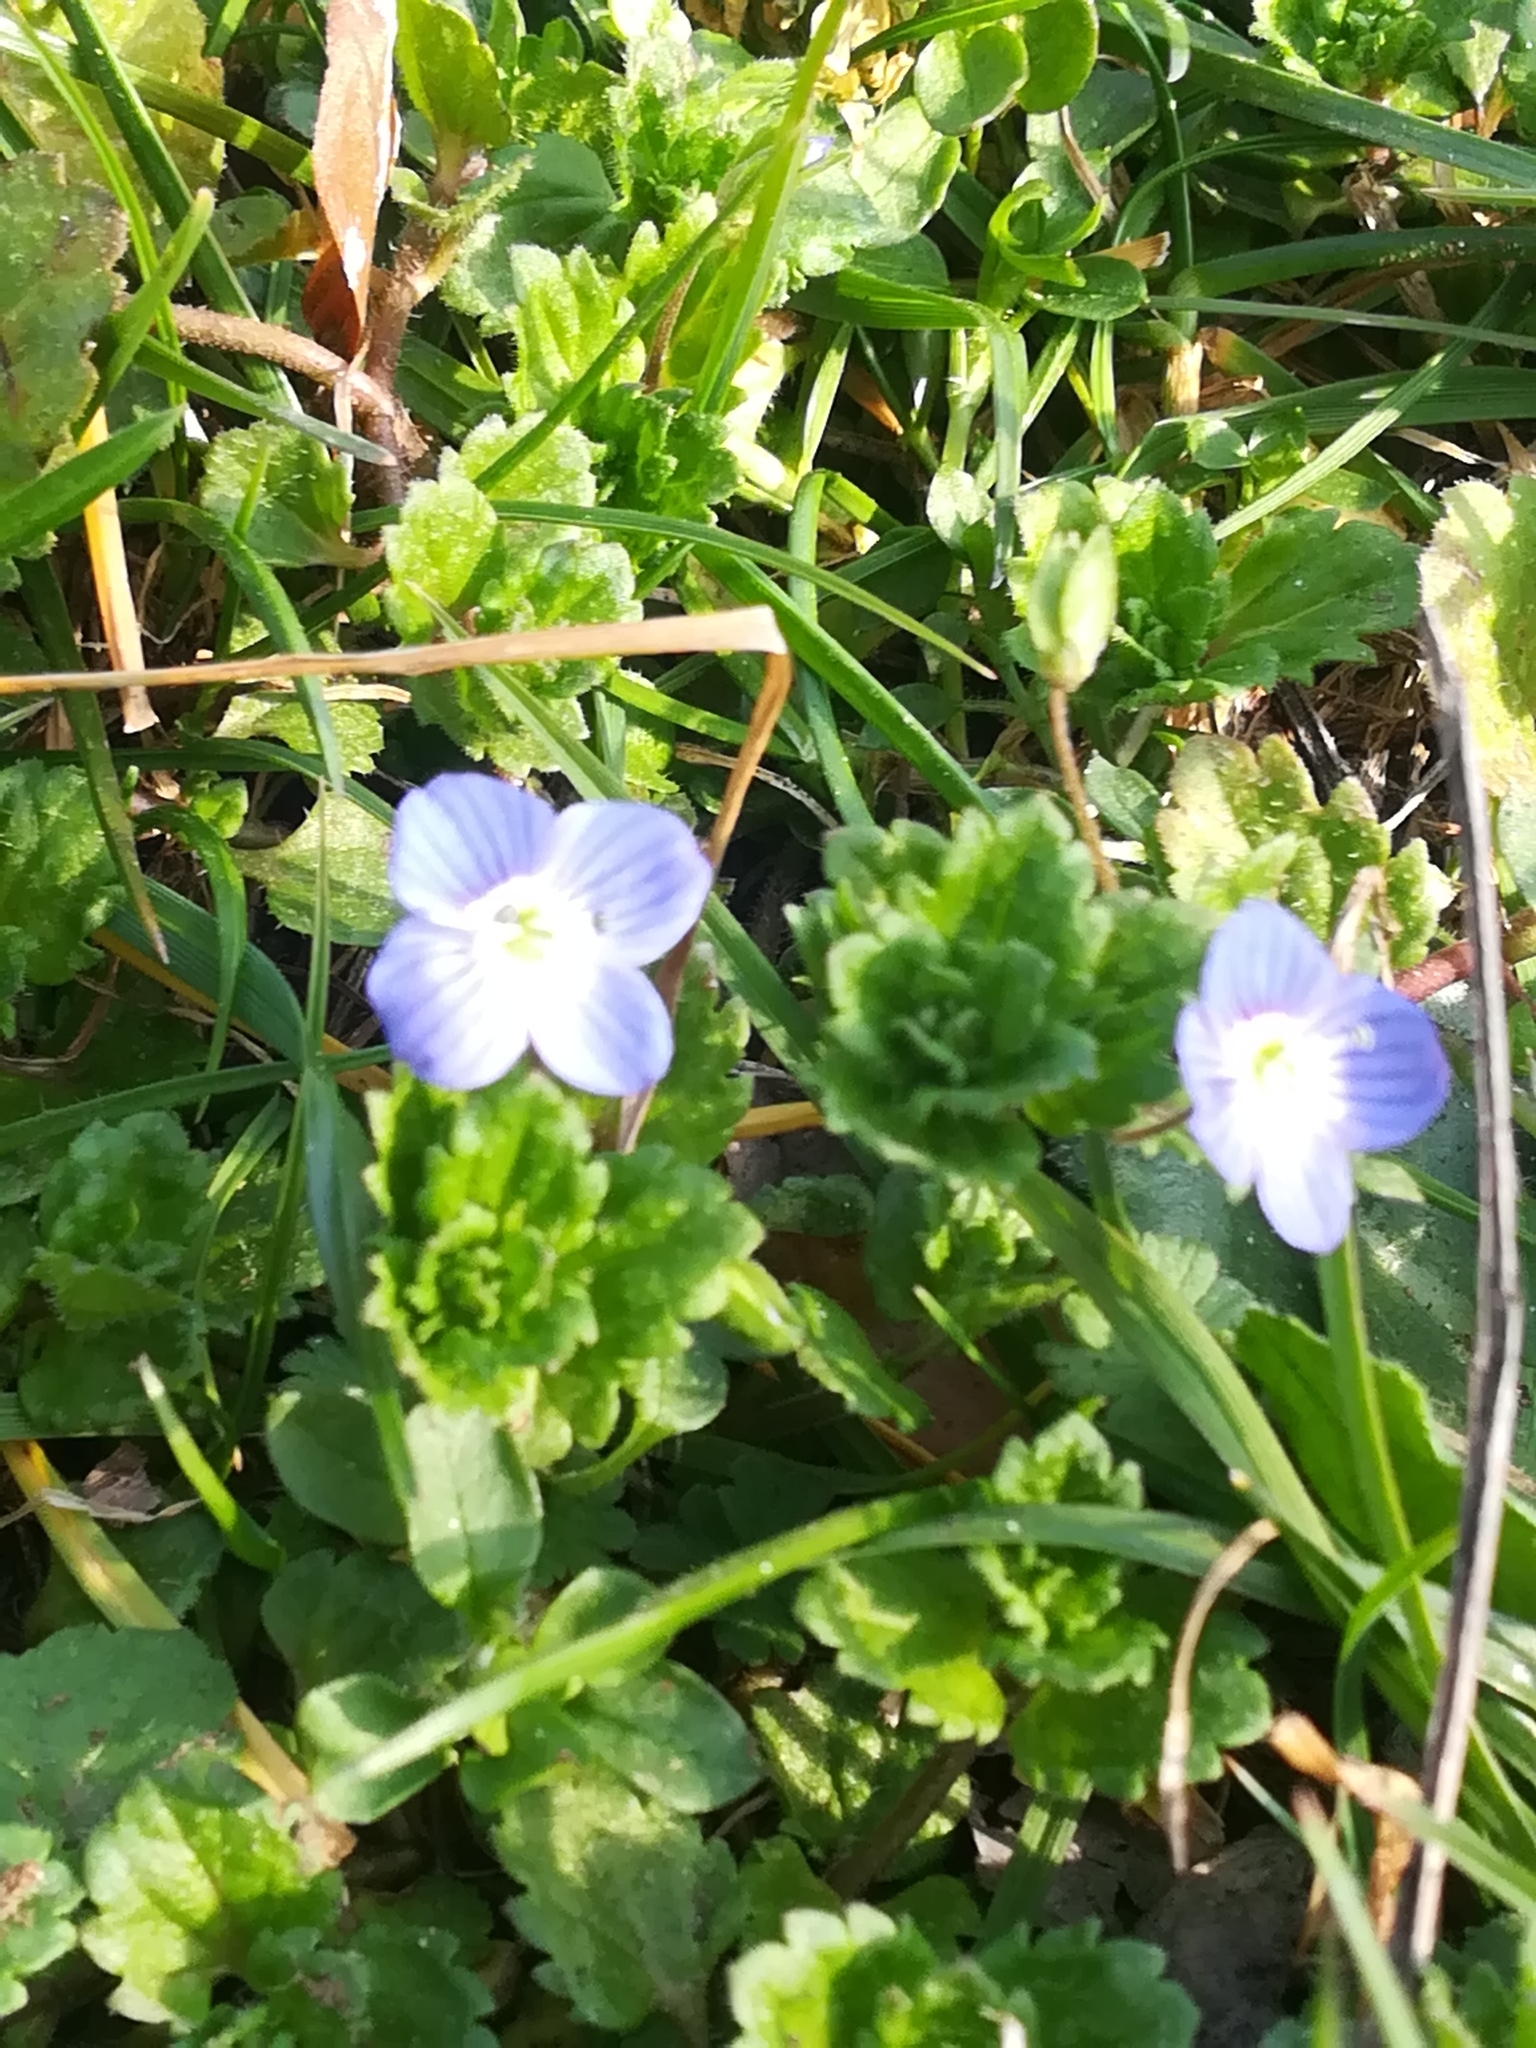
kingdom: Plantae
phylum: Tracheophyta
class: Magnoliopsida
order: Lamiales
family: Plantaginaceae
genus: Veronica
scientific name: Veronica persica
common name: Common field-speedwell
